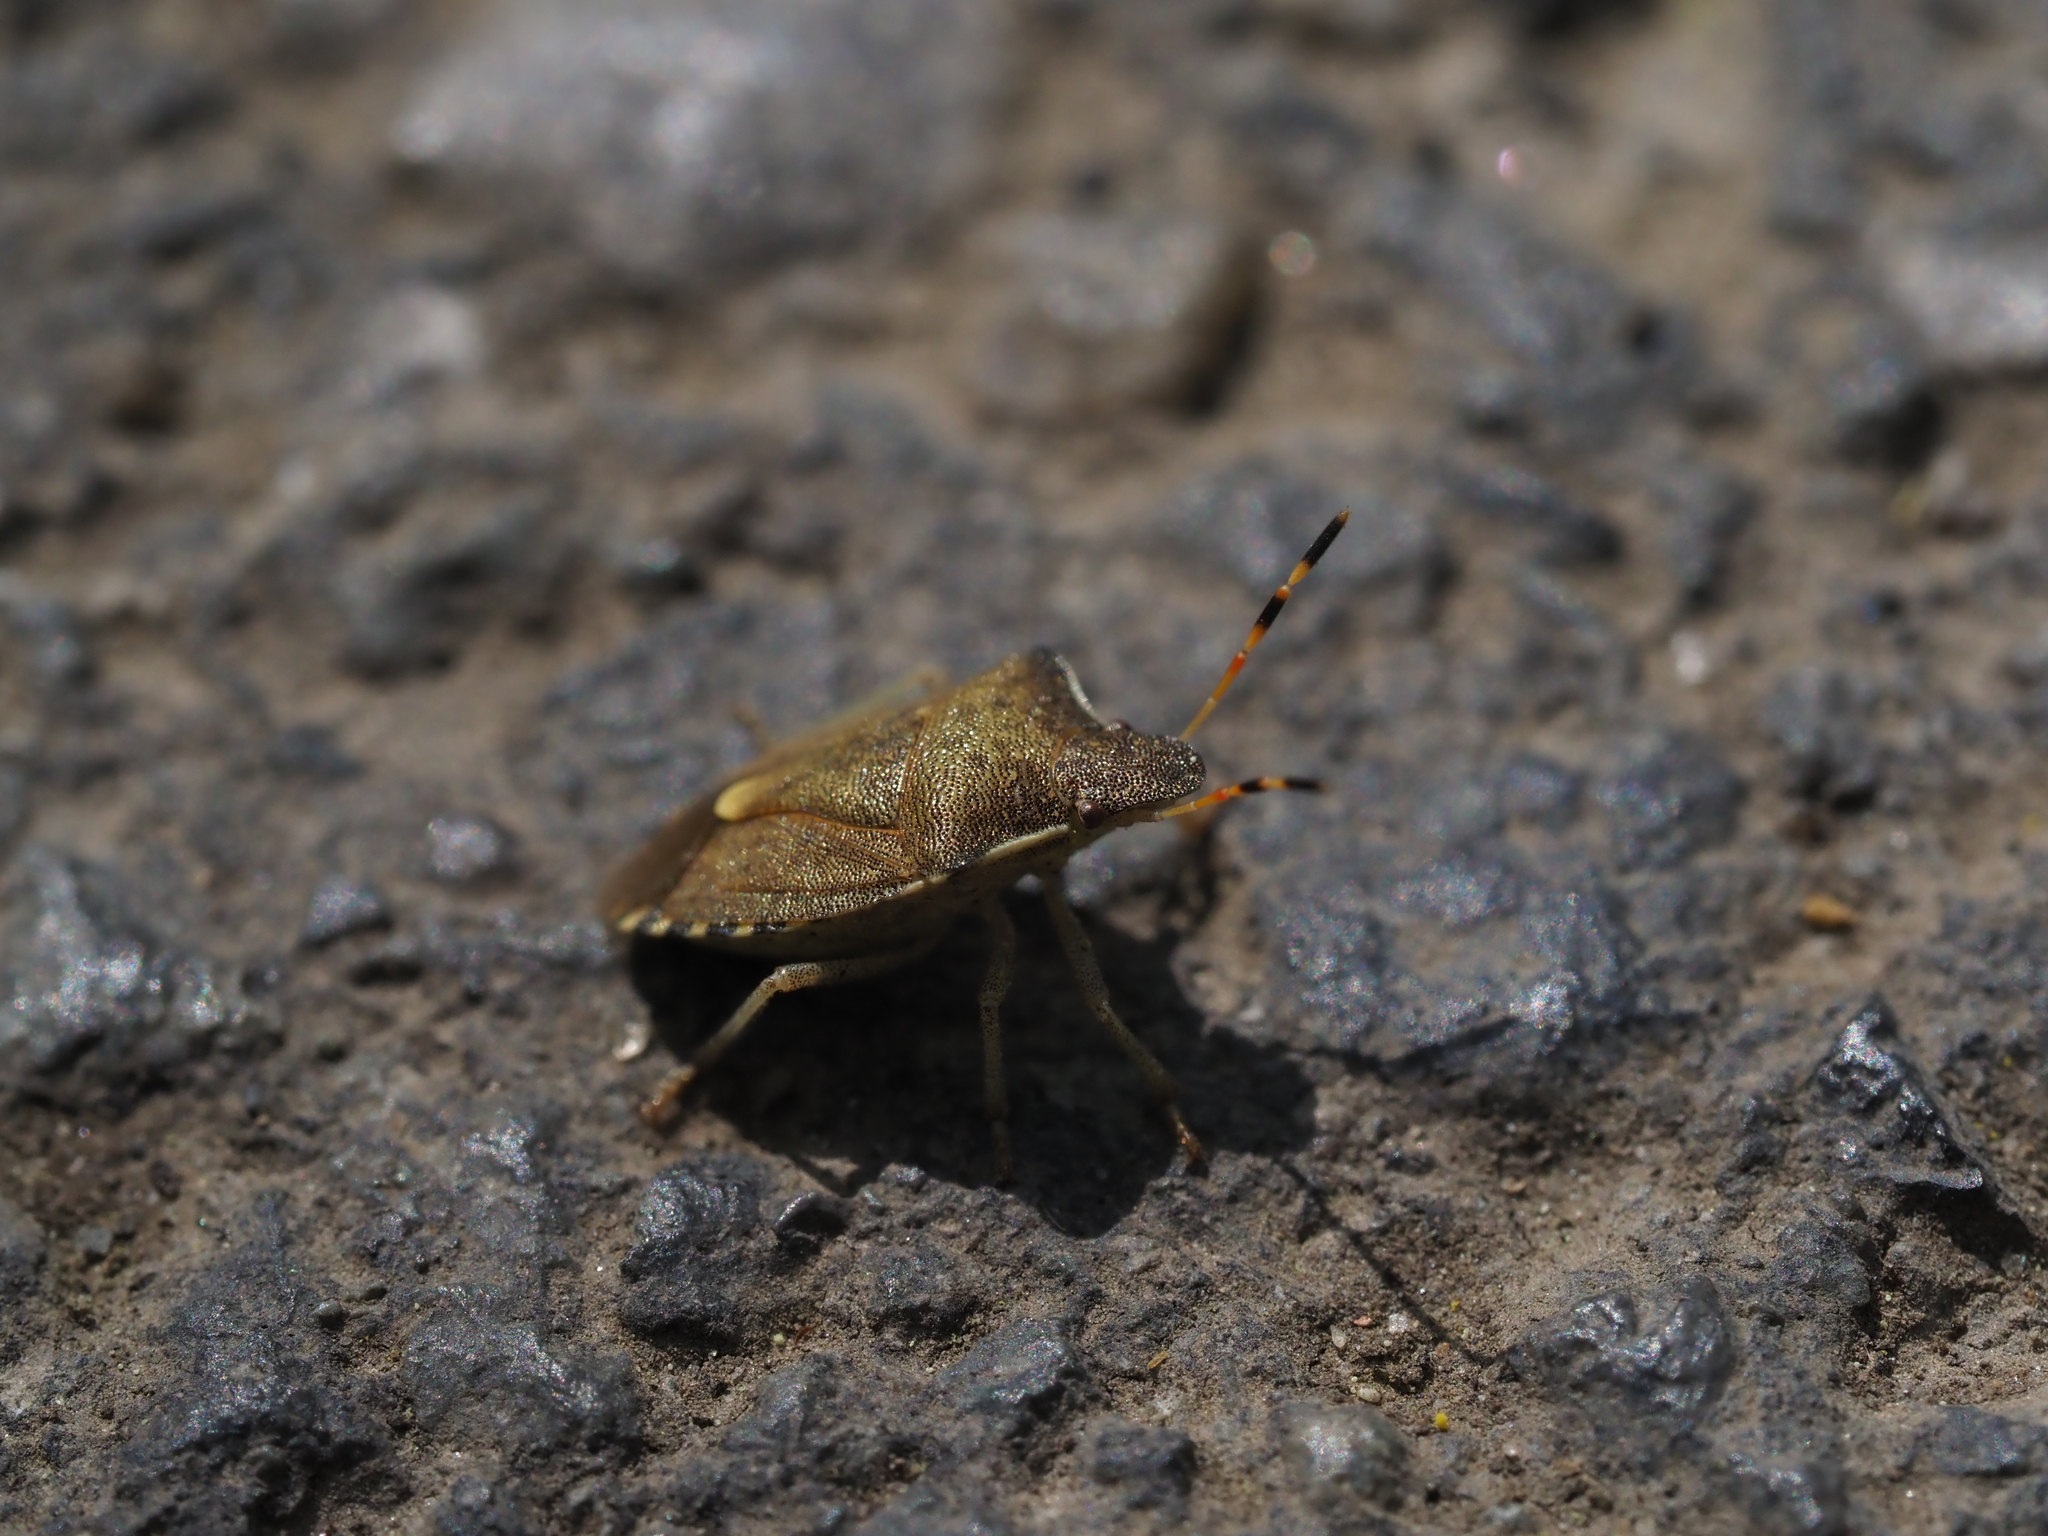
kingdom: Animalia
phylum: Arthropoda
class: Insecta
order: Hemiptera
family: Pentatomidae
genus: Holcostethus
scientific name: Holcostethus strictus
